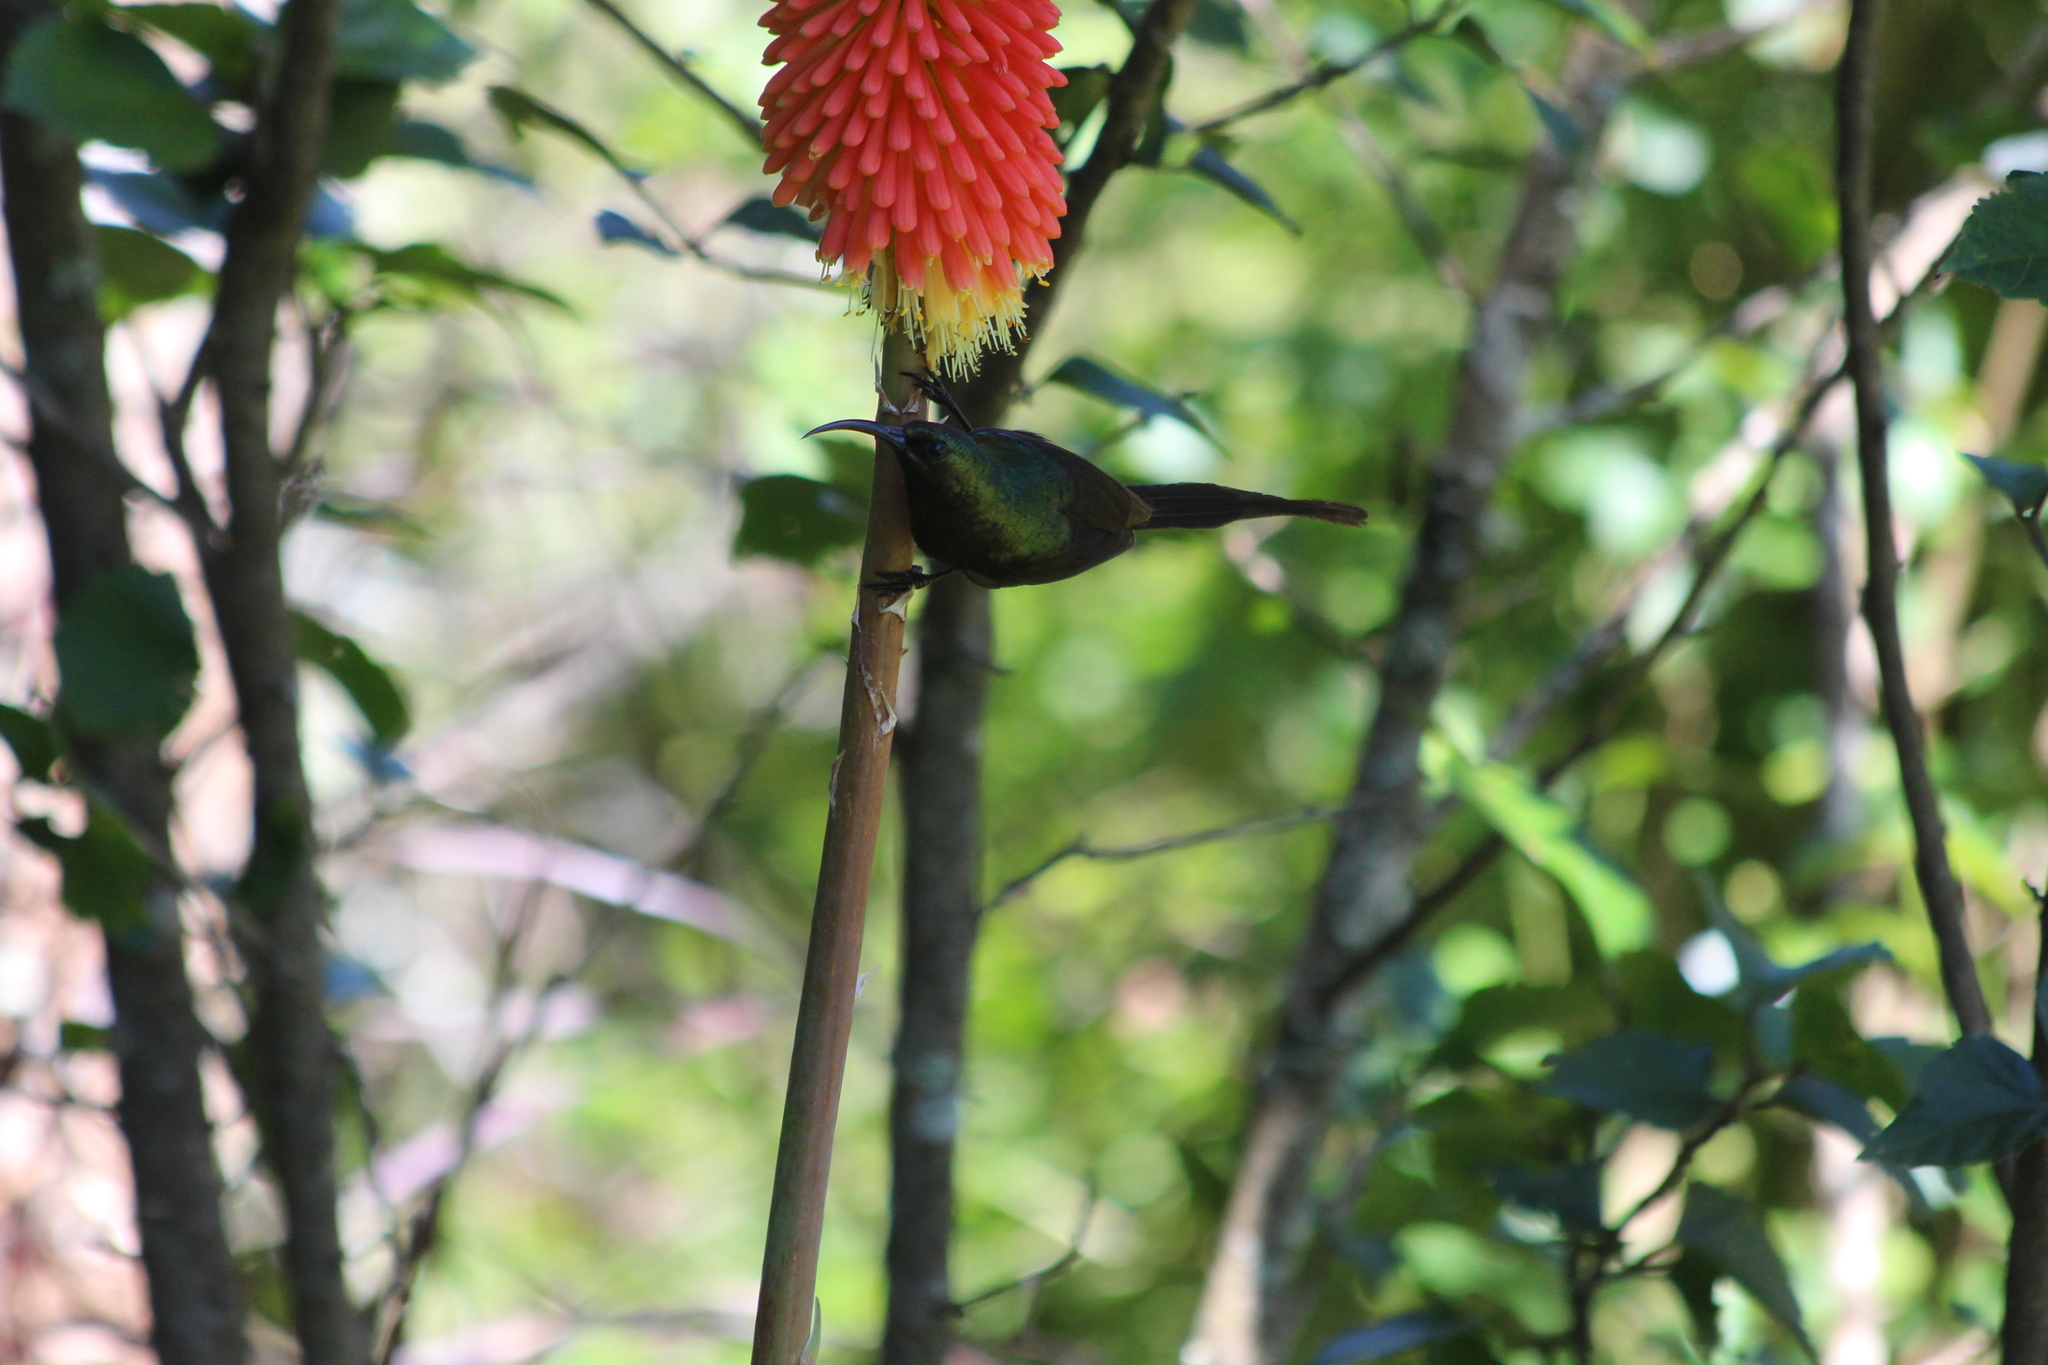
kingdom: Animalia
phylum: Chordata
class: Aves
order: Passeriformes
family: Nectariniidae
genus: Nectarinia
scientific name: Nectarinia kilimensis
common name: Bronzy sunbird
